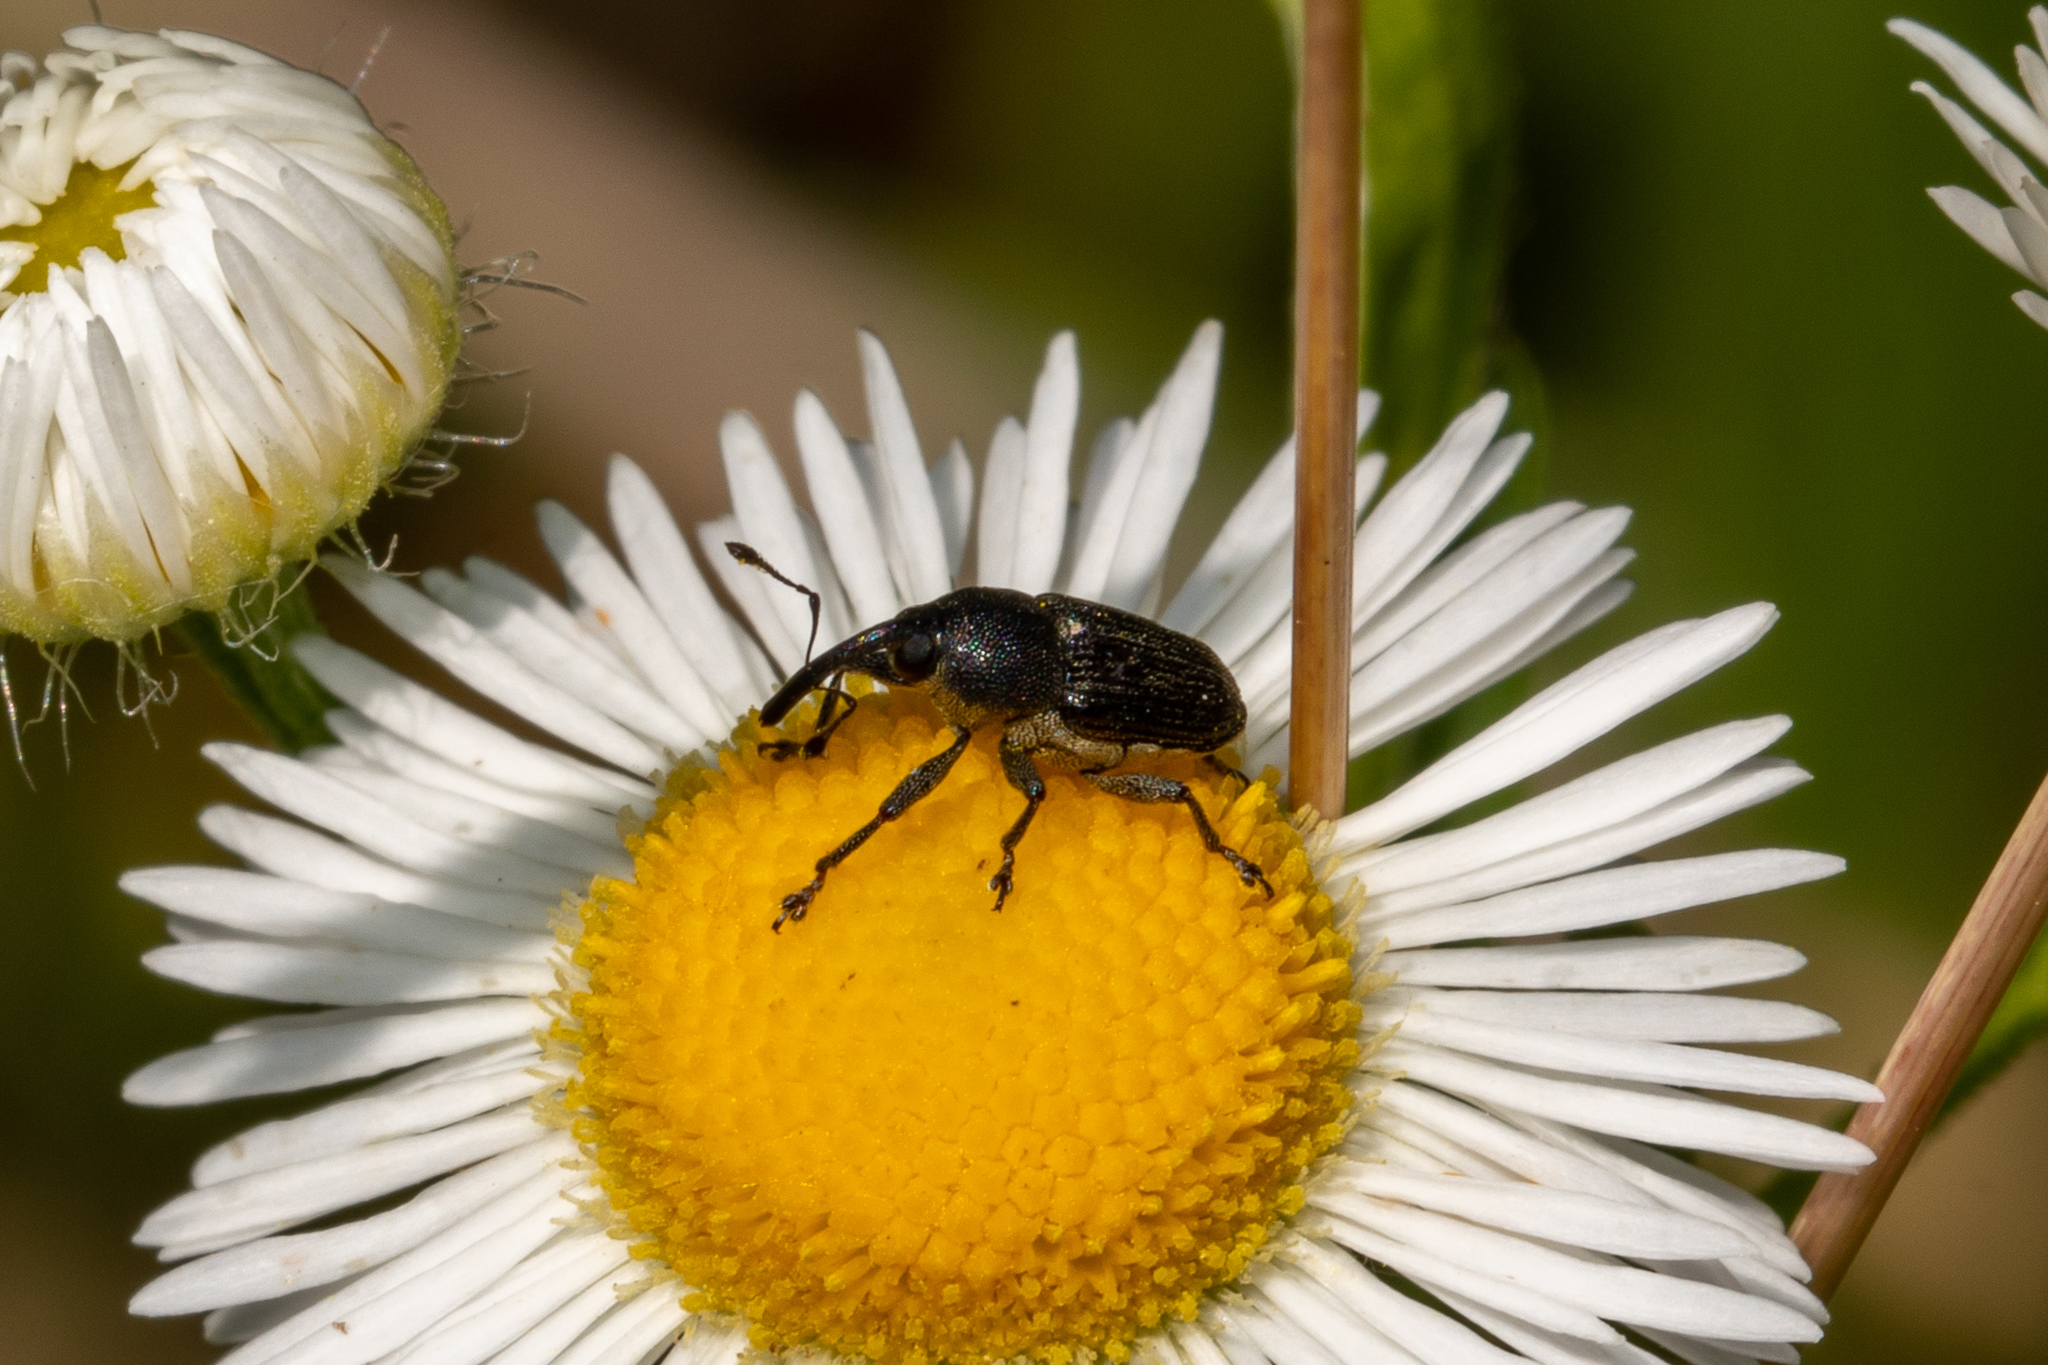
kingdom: Animalia
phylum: Arthropoda
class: Insecta
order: Coleoptera
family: Curculionidae
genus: Odontocorynus
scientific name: Odontocorynus salebrosus
